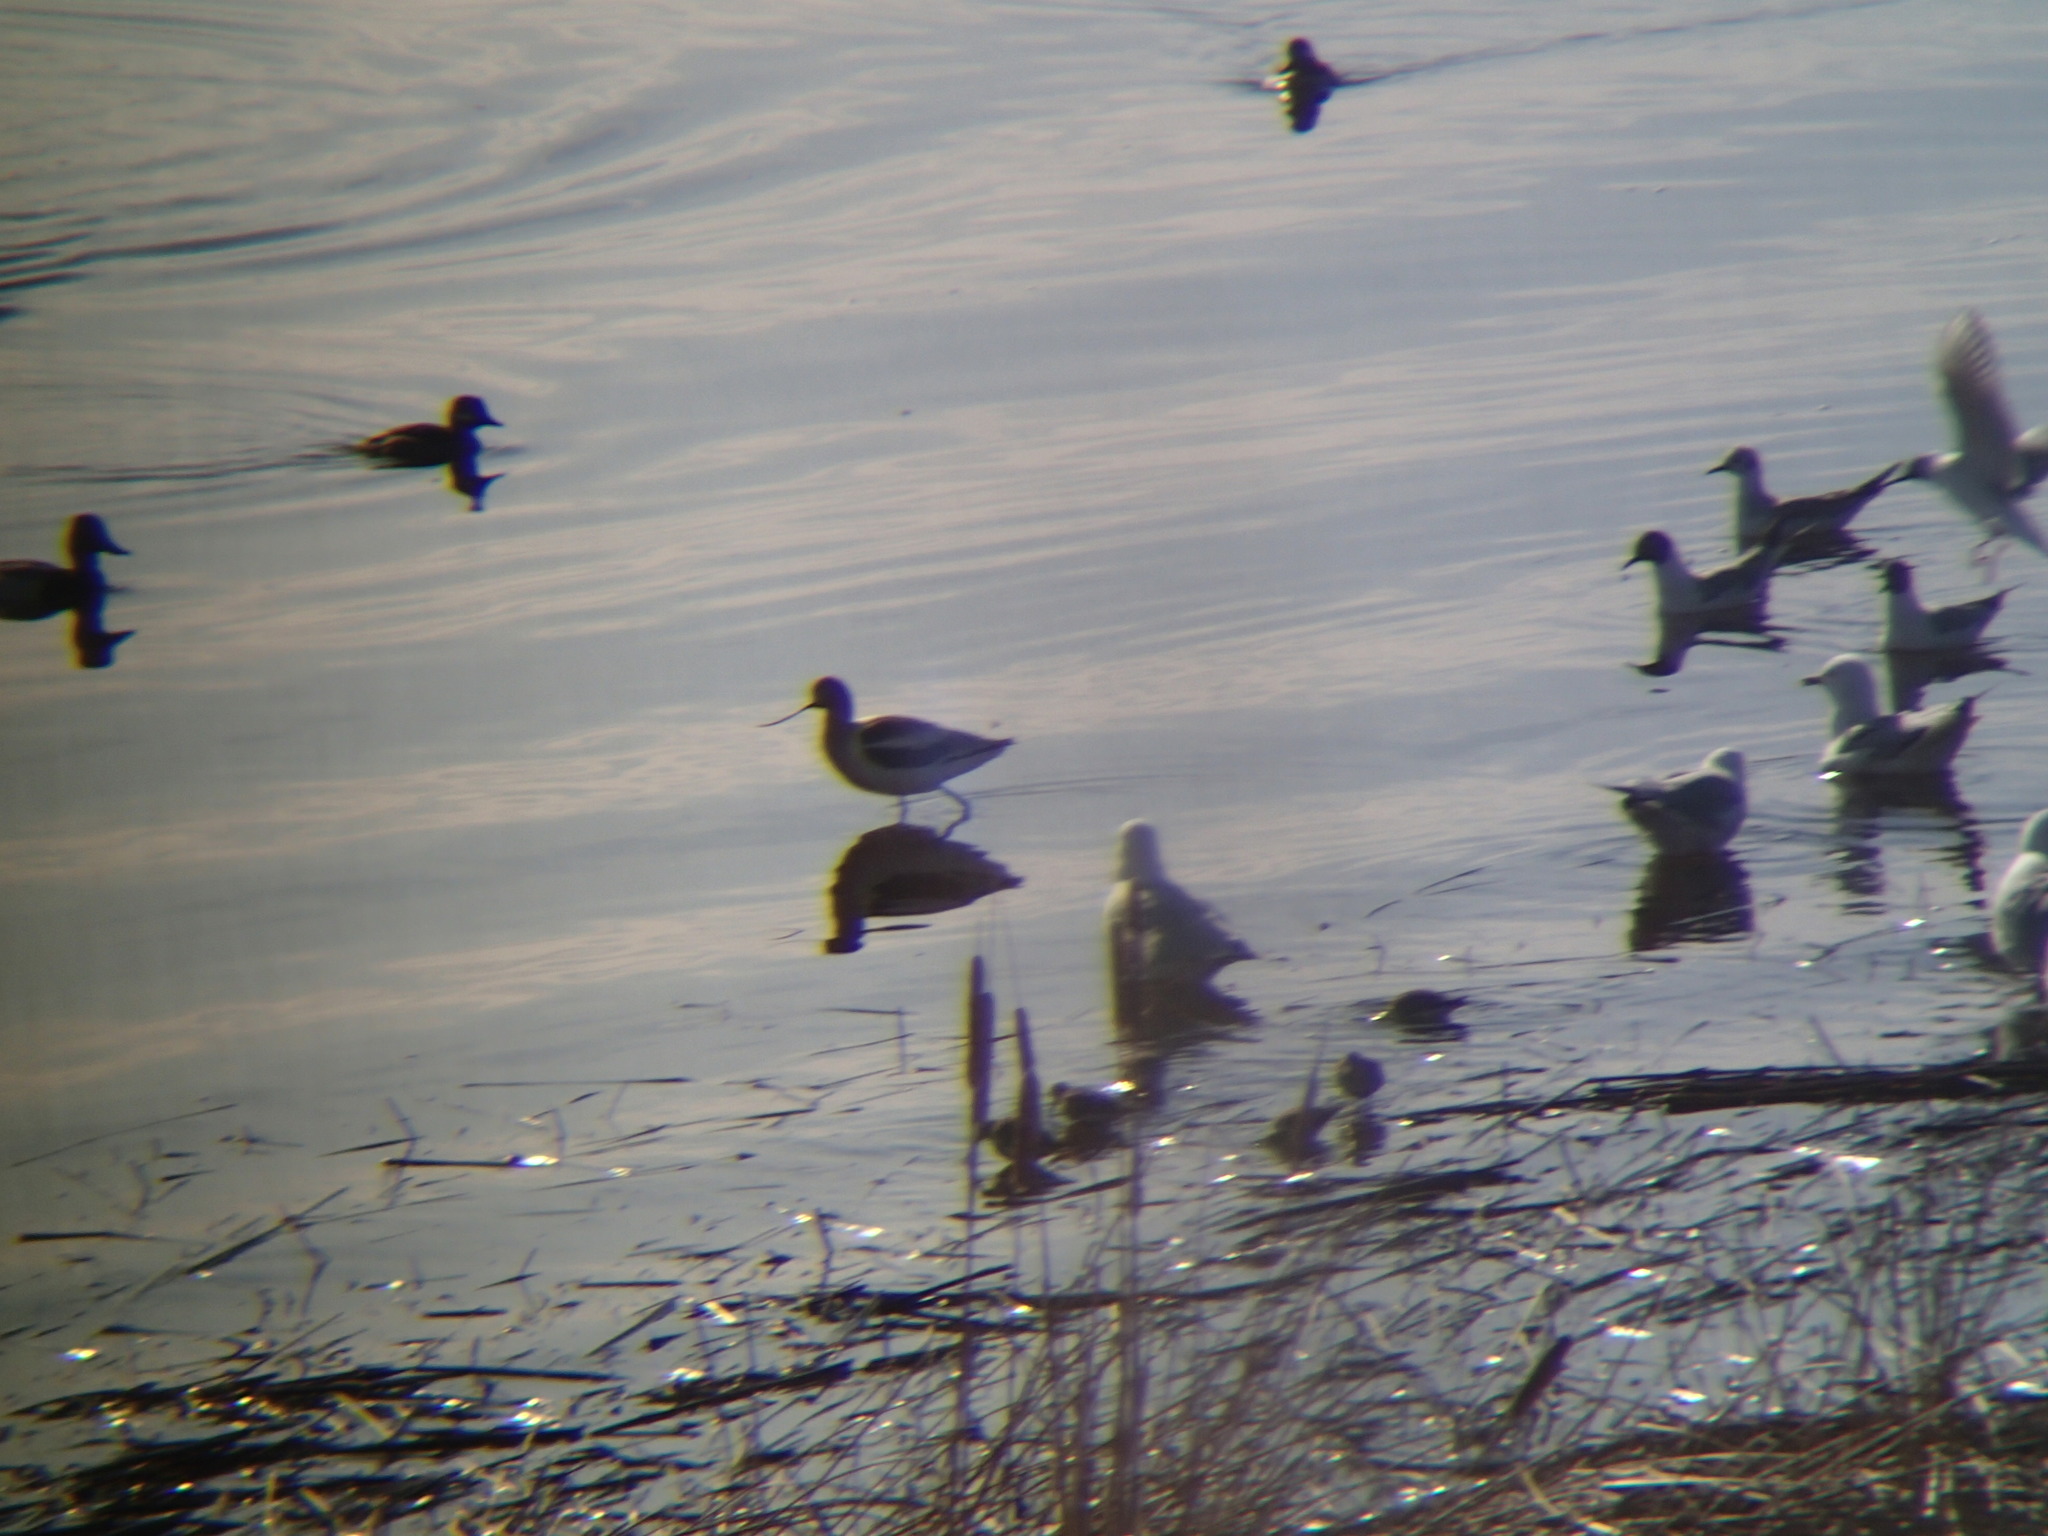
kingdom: Animalia
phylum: Chordata
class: Aves
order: Charadriiformes
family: Recurvirostridae
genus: Recurvirostra
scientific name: Recurvirostra americana
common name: American avocet
